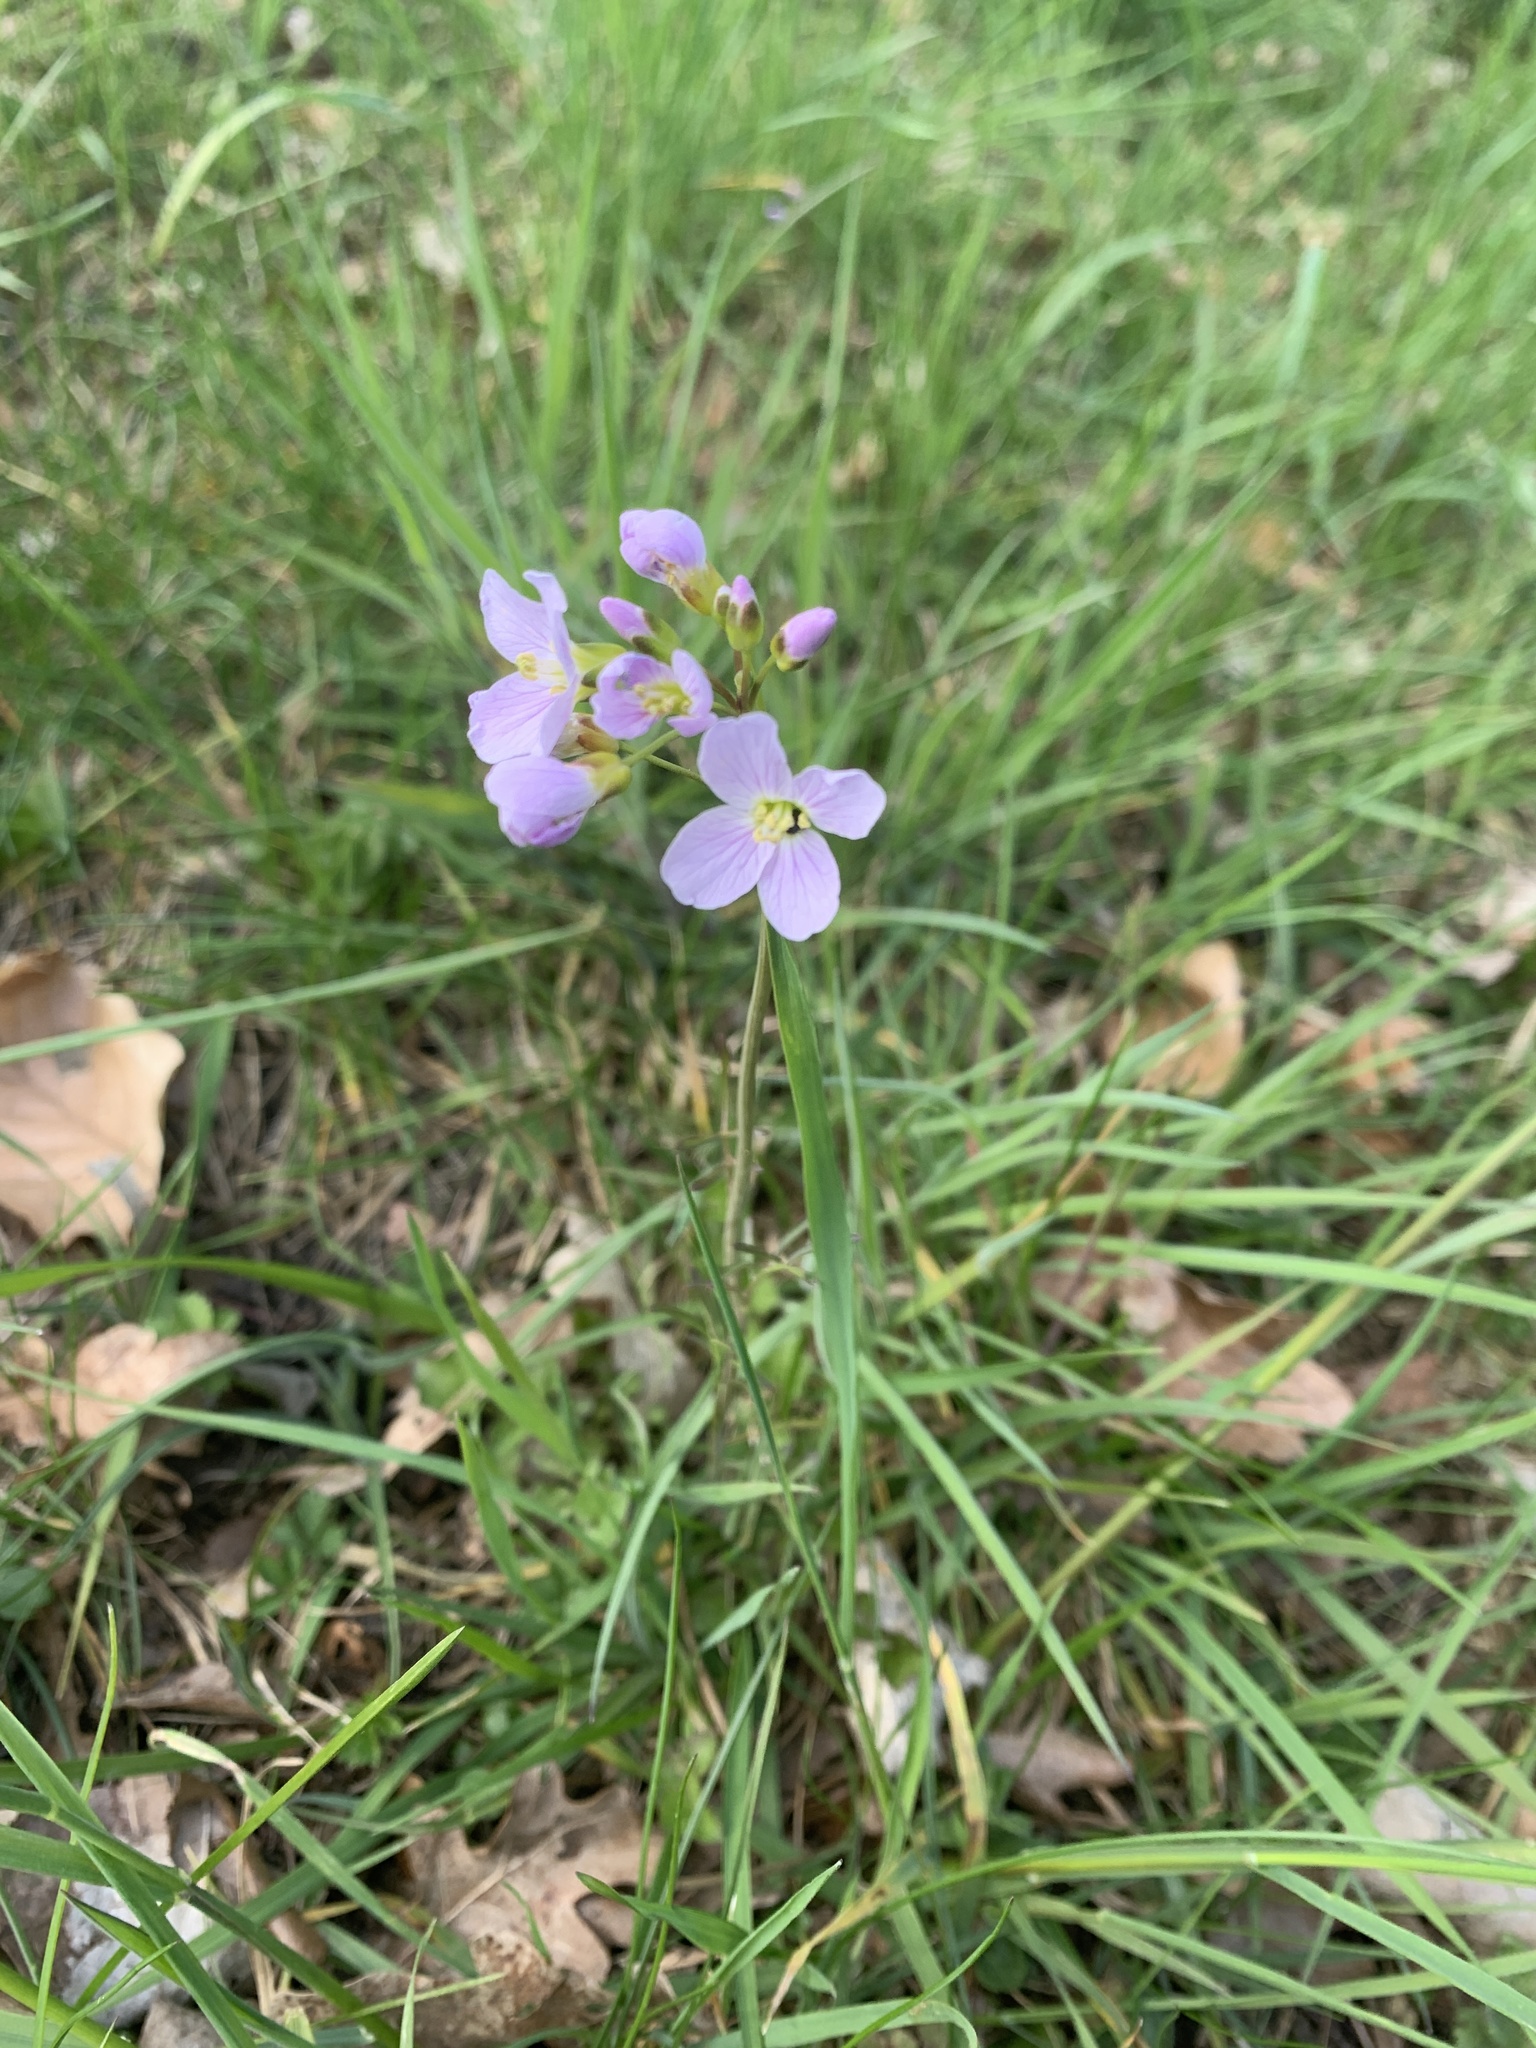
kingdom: Plantae
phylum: Tracheophyta
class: Magnoliopsida
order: Brassicales
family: Brassicaceae
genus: Cardamine
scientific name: Cardamine pratensis
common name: Cuckoo flower
